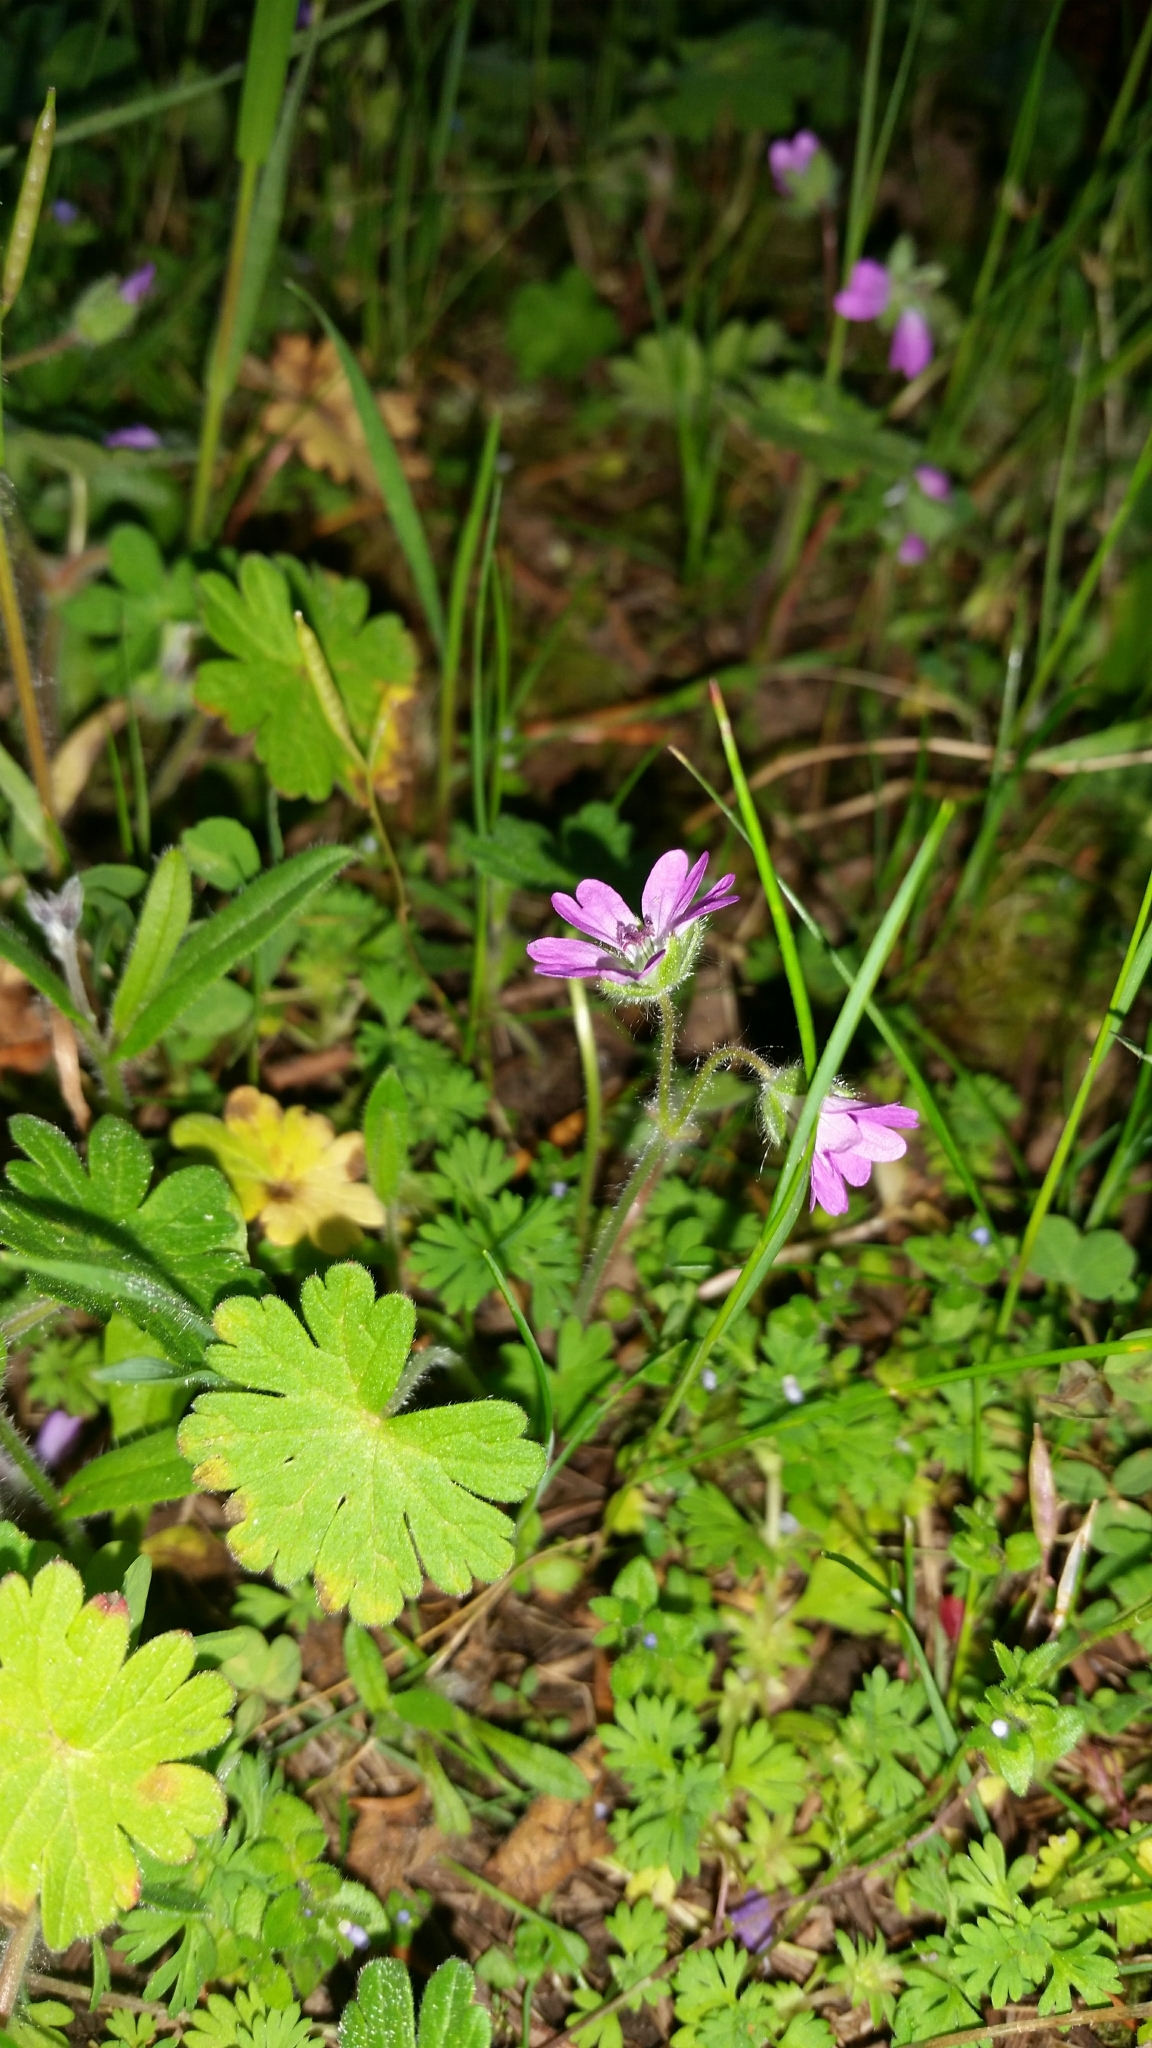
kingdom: Plantae
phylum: Tracheophyta
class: Magnoliopsida
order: Geraniales
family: Geraniaceae
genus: Geranium
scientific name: Geranium molle
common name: Dove's-foot crane's-bill
